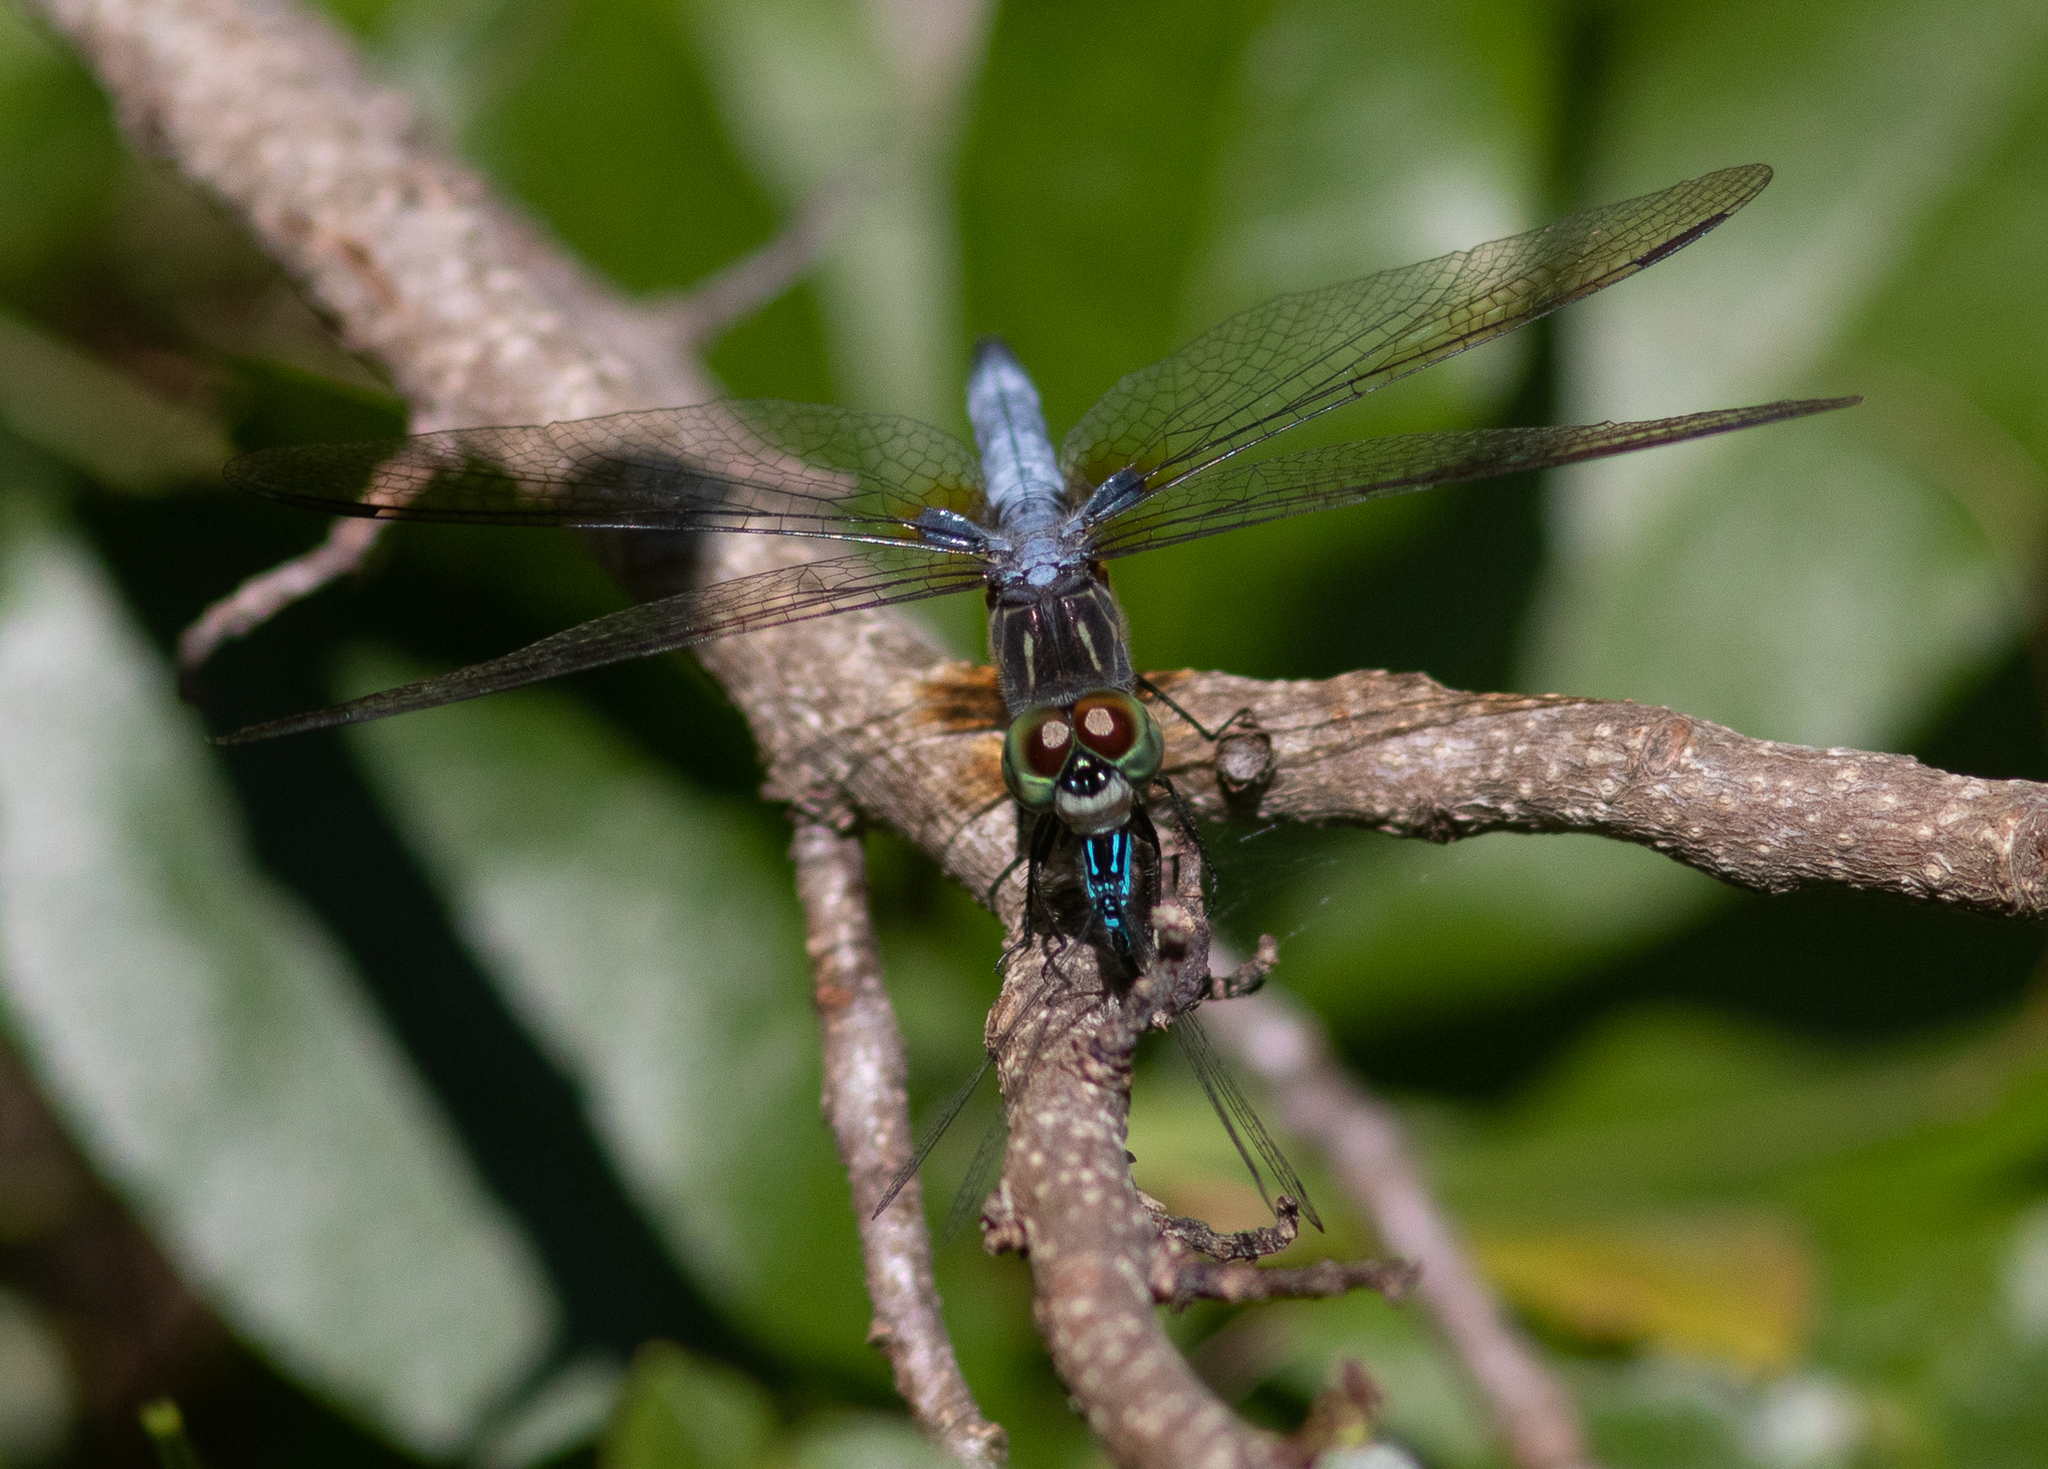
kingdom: Animalia
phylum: Arthropoda
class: Insecta
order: Odonata
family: Libellulidae
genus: Pachydiplax
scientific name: Pachydiplax longipennis
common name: Blue dasher
